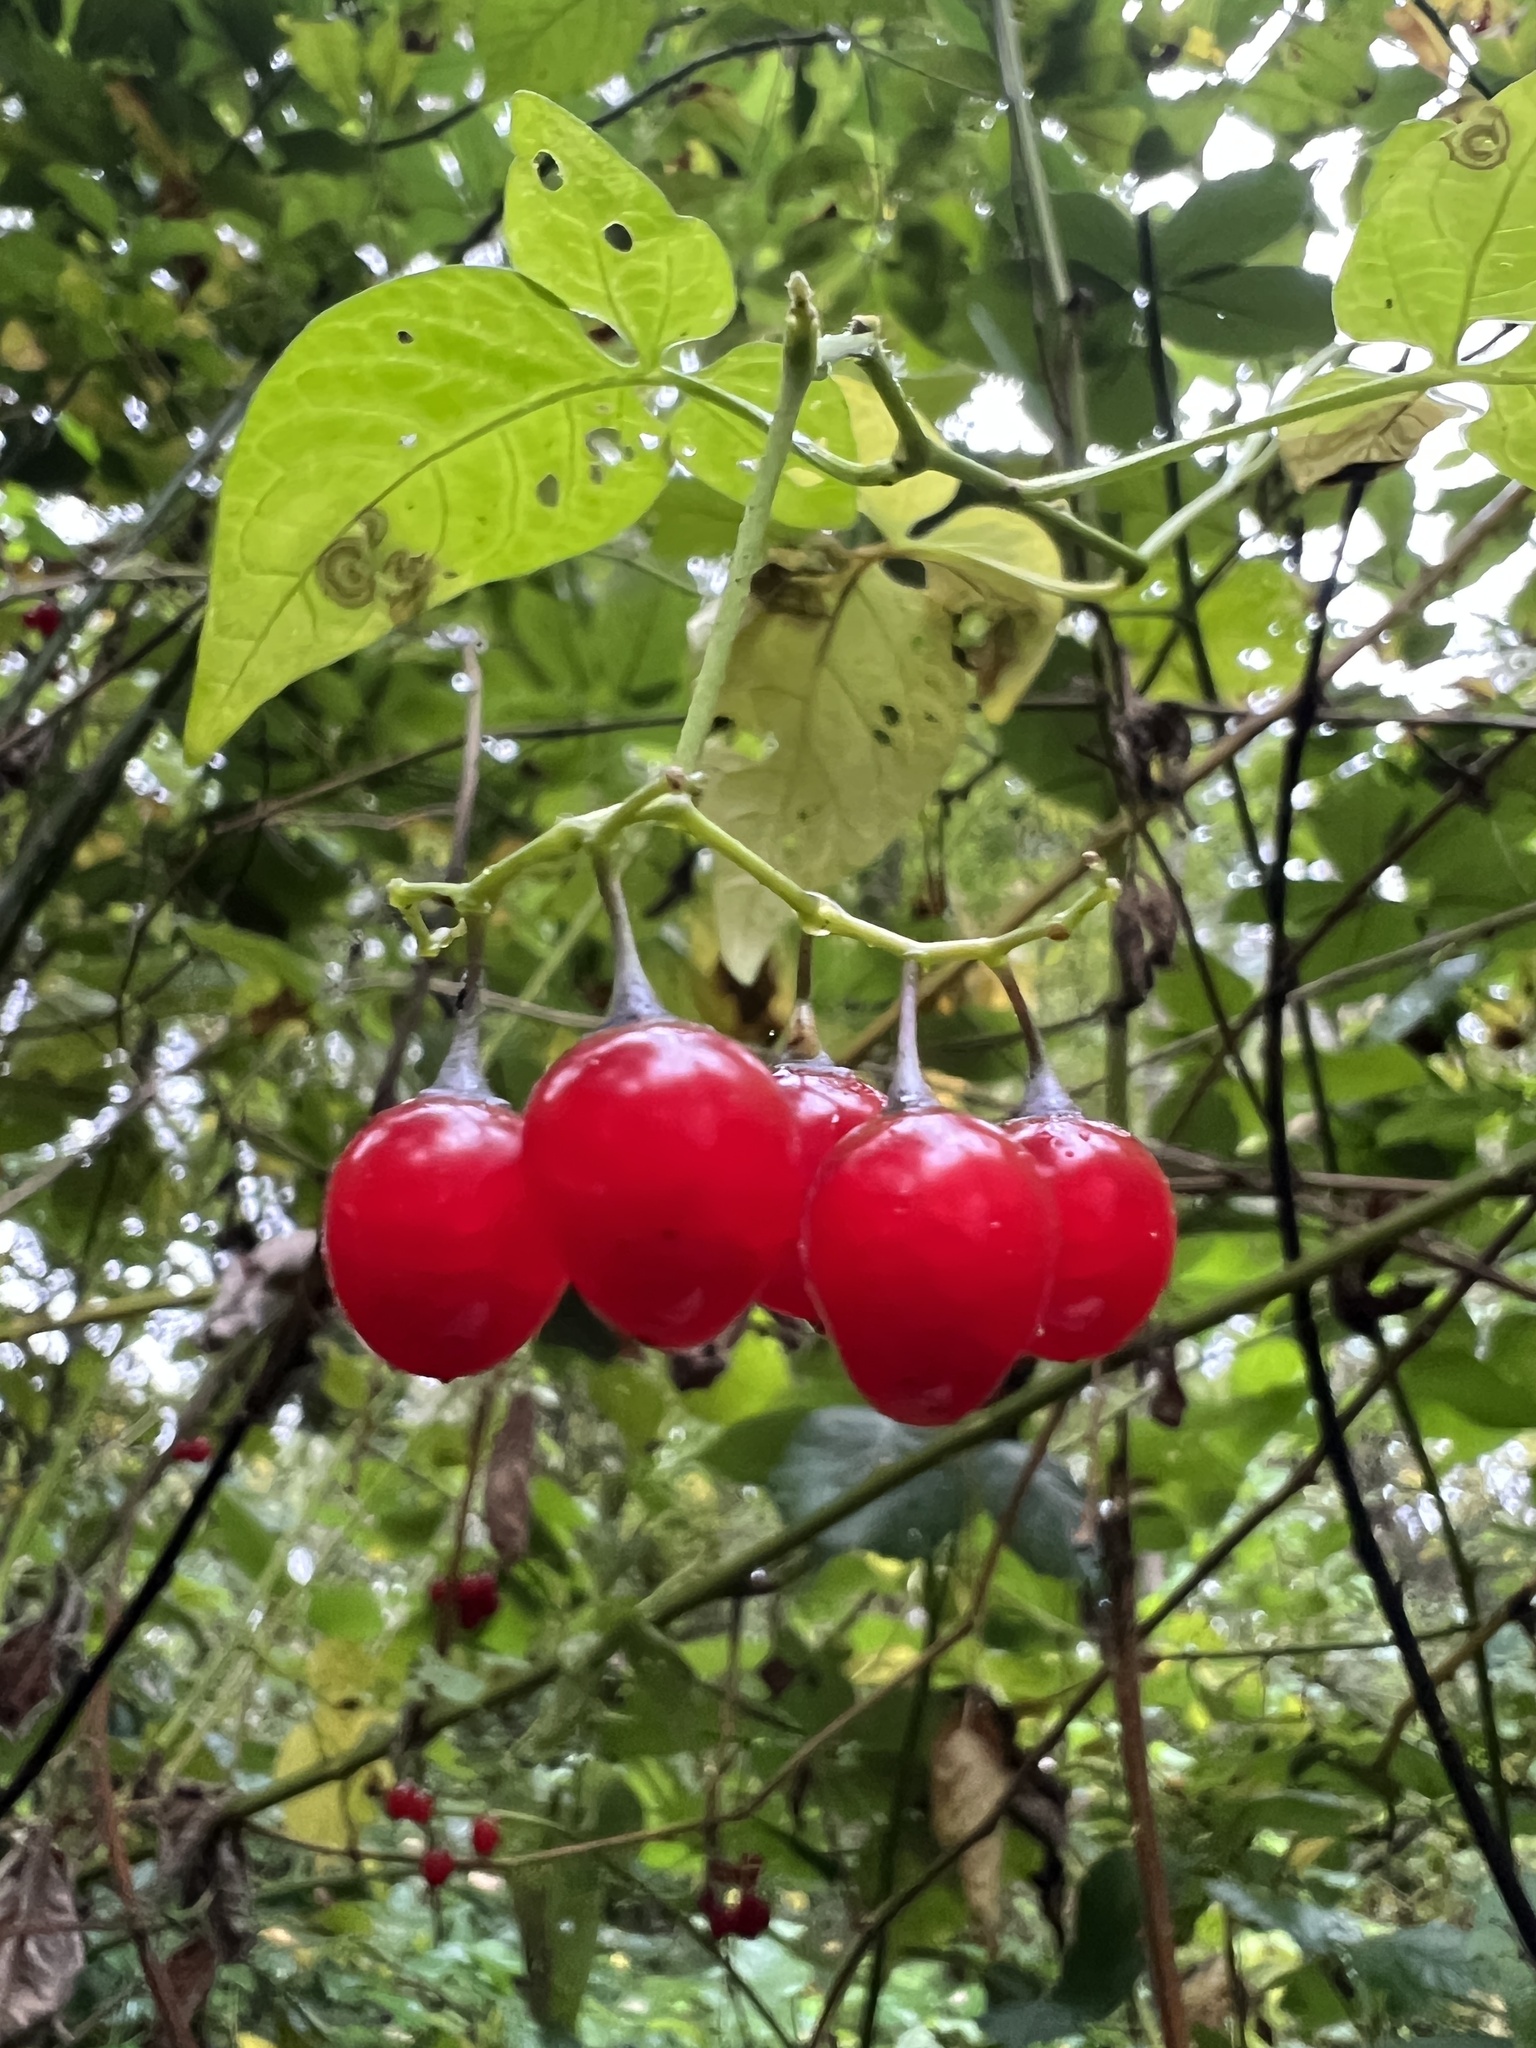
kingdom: Plantae
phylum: Tracheophyta
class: Magnoliopsida
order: Solanales
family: Solanaceae
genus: Solanum
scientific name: Solanum dulcamara
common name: Climbing nightshade
